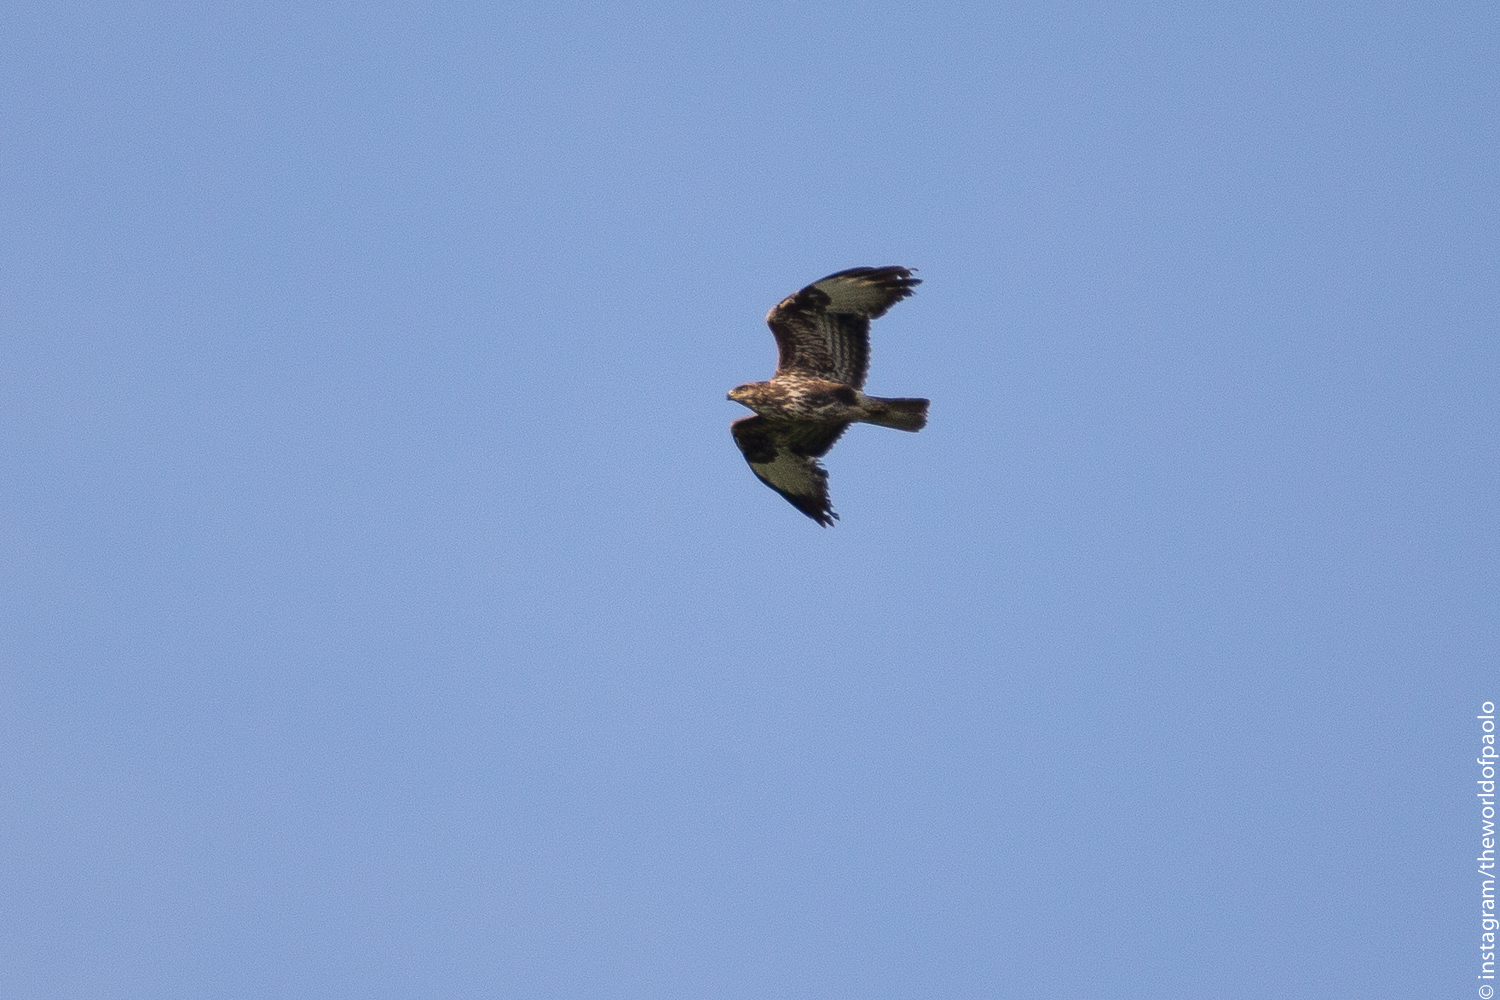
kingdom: Animalia
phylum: Chordata
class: Aves
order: Accipitriformes
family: Accipitridae
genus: Buteo
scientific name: Buteo buteo
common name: Common buzzard
